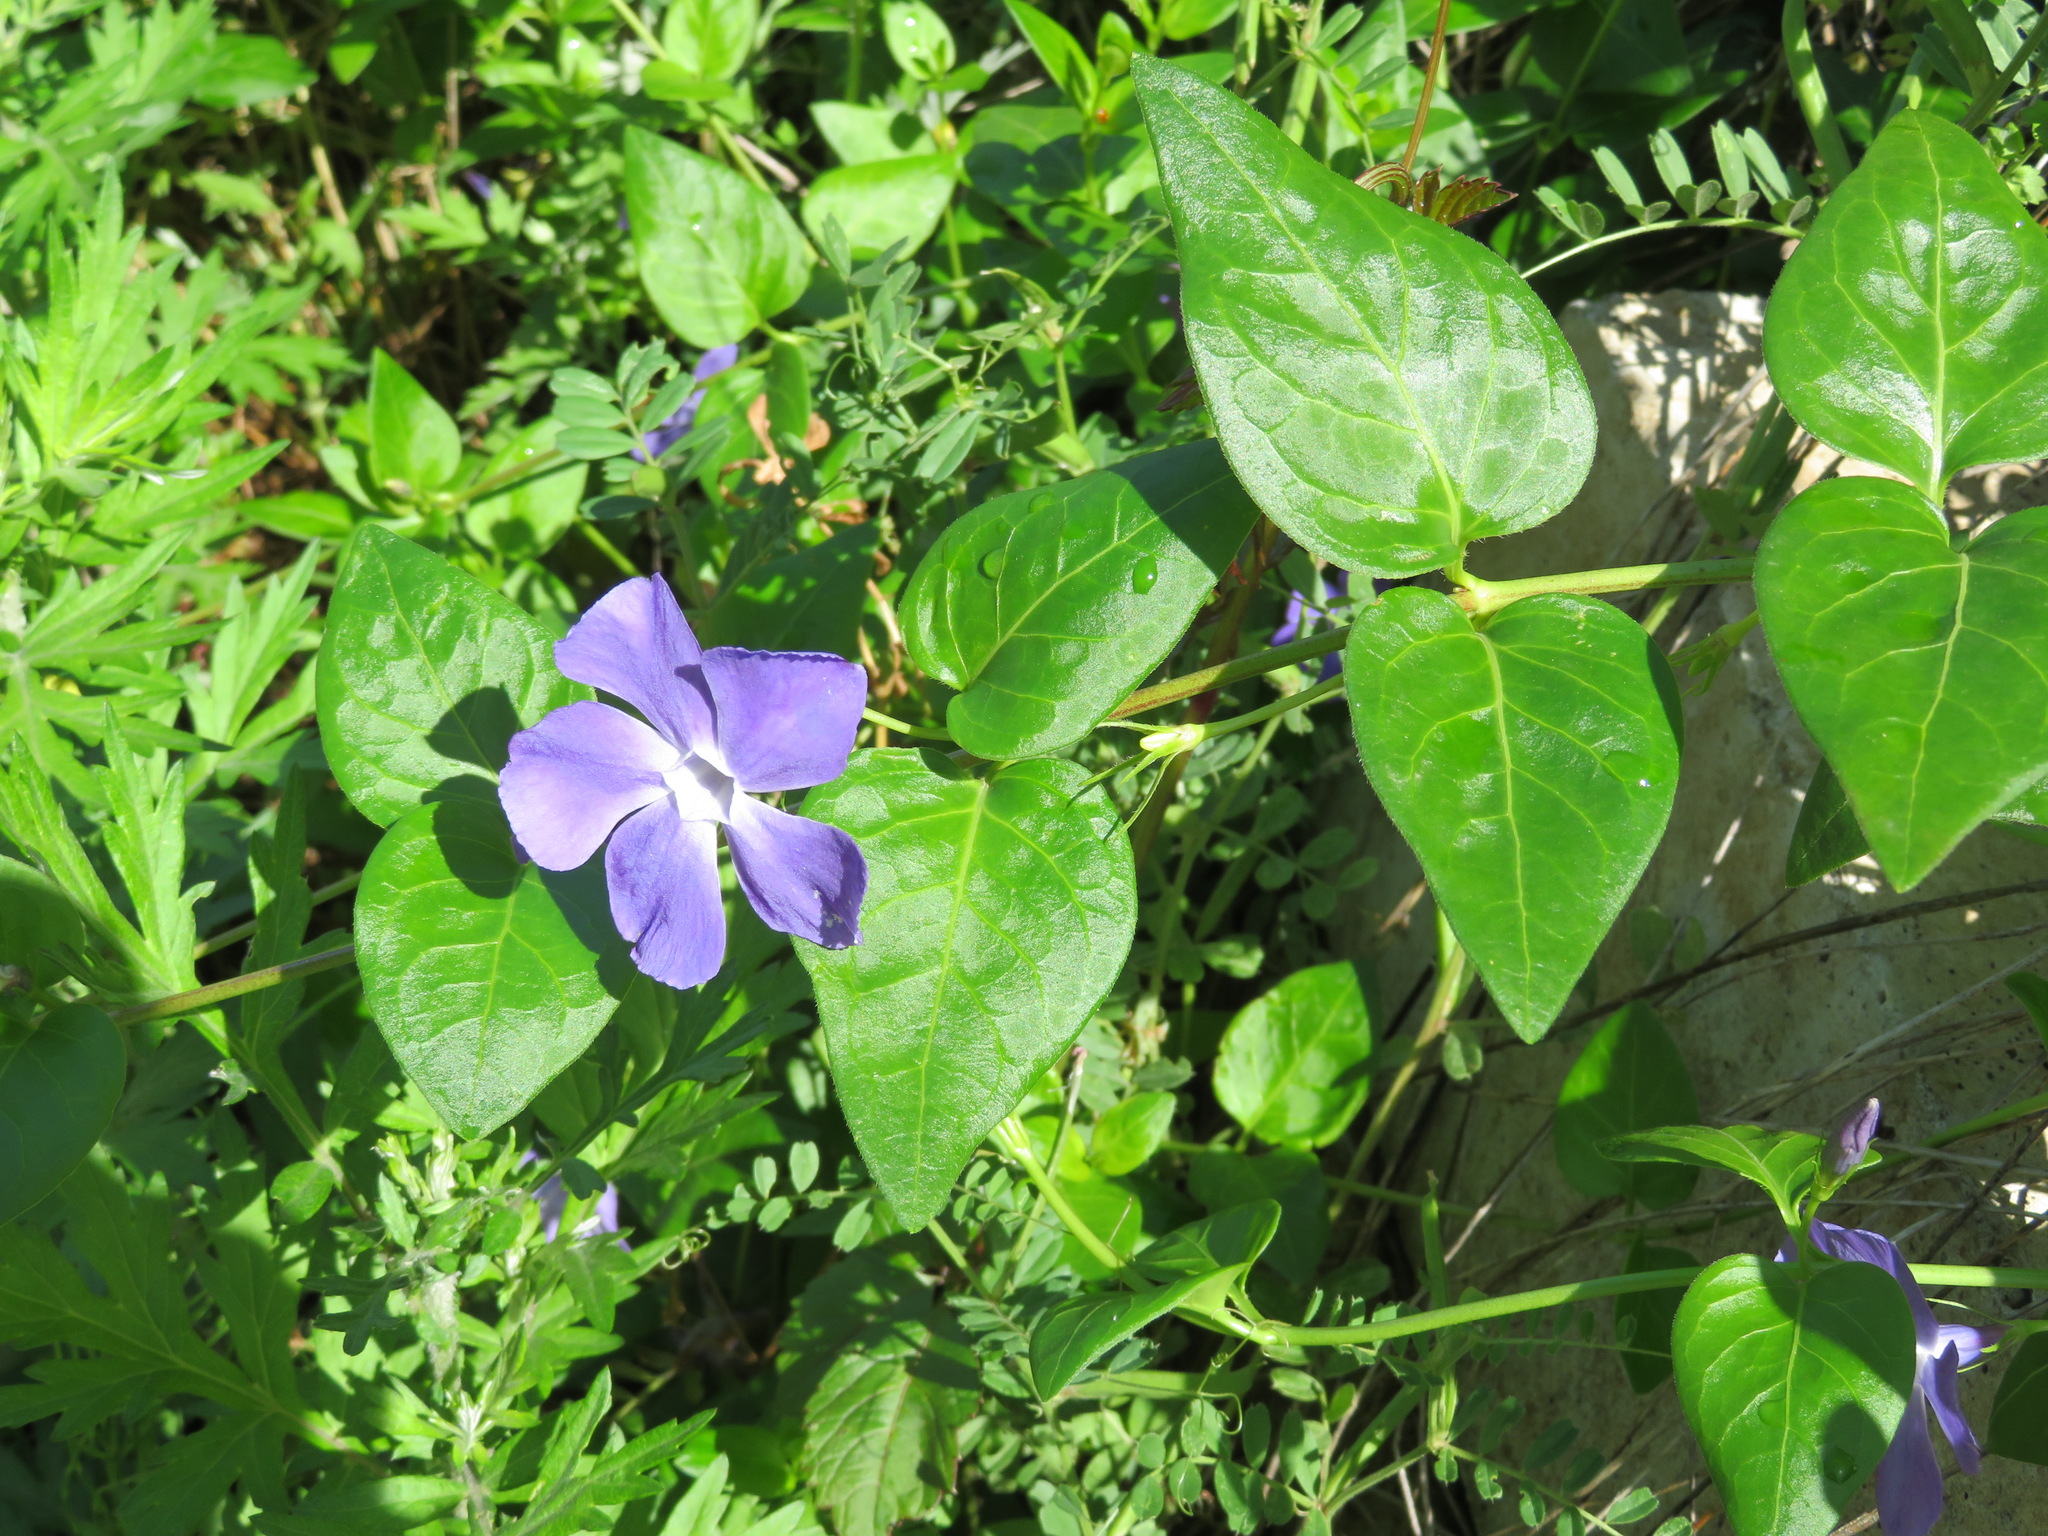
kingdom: Plantae
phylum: Tracheophyta
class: Magnoliopsida
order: Gentianales
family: Apocynaceae
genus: Vinca
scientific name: Vinca major
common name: Greater periwinkle
